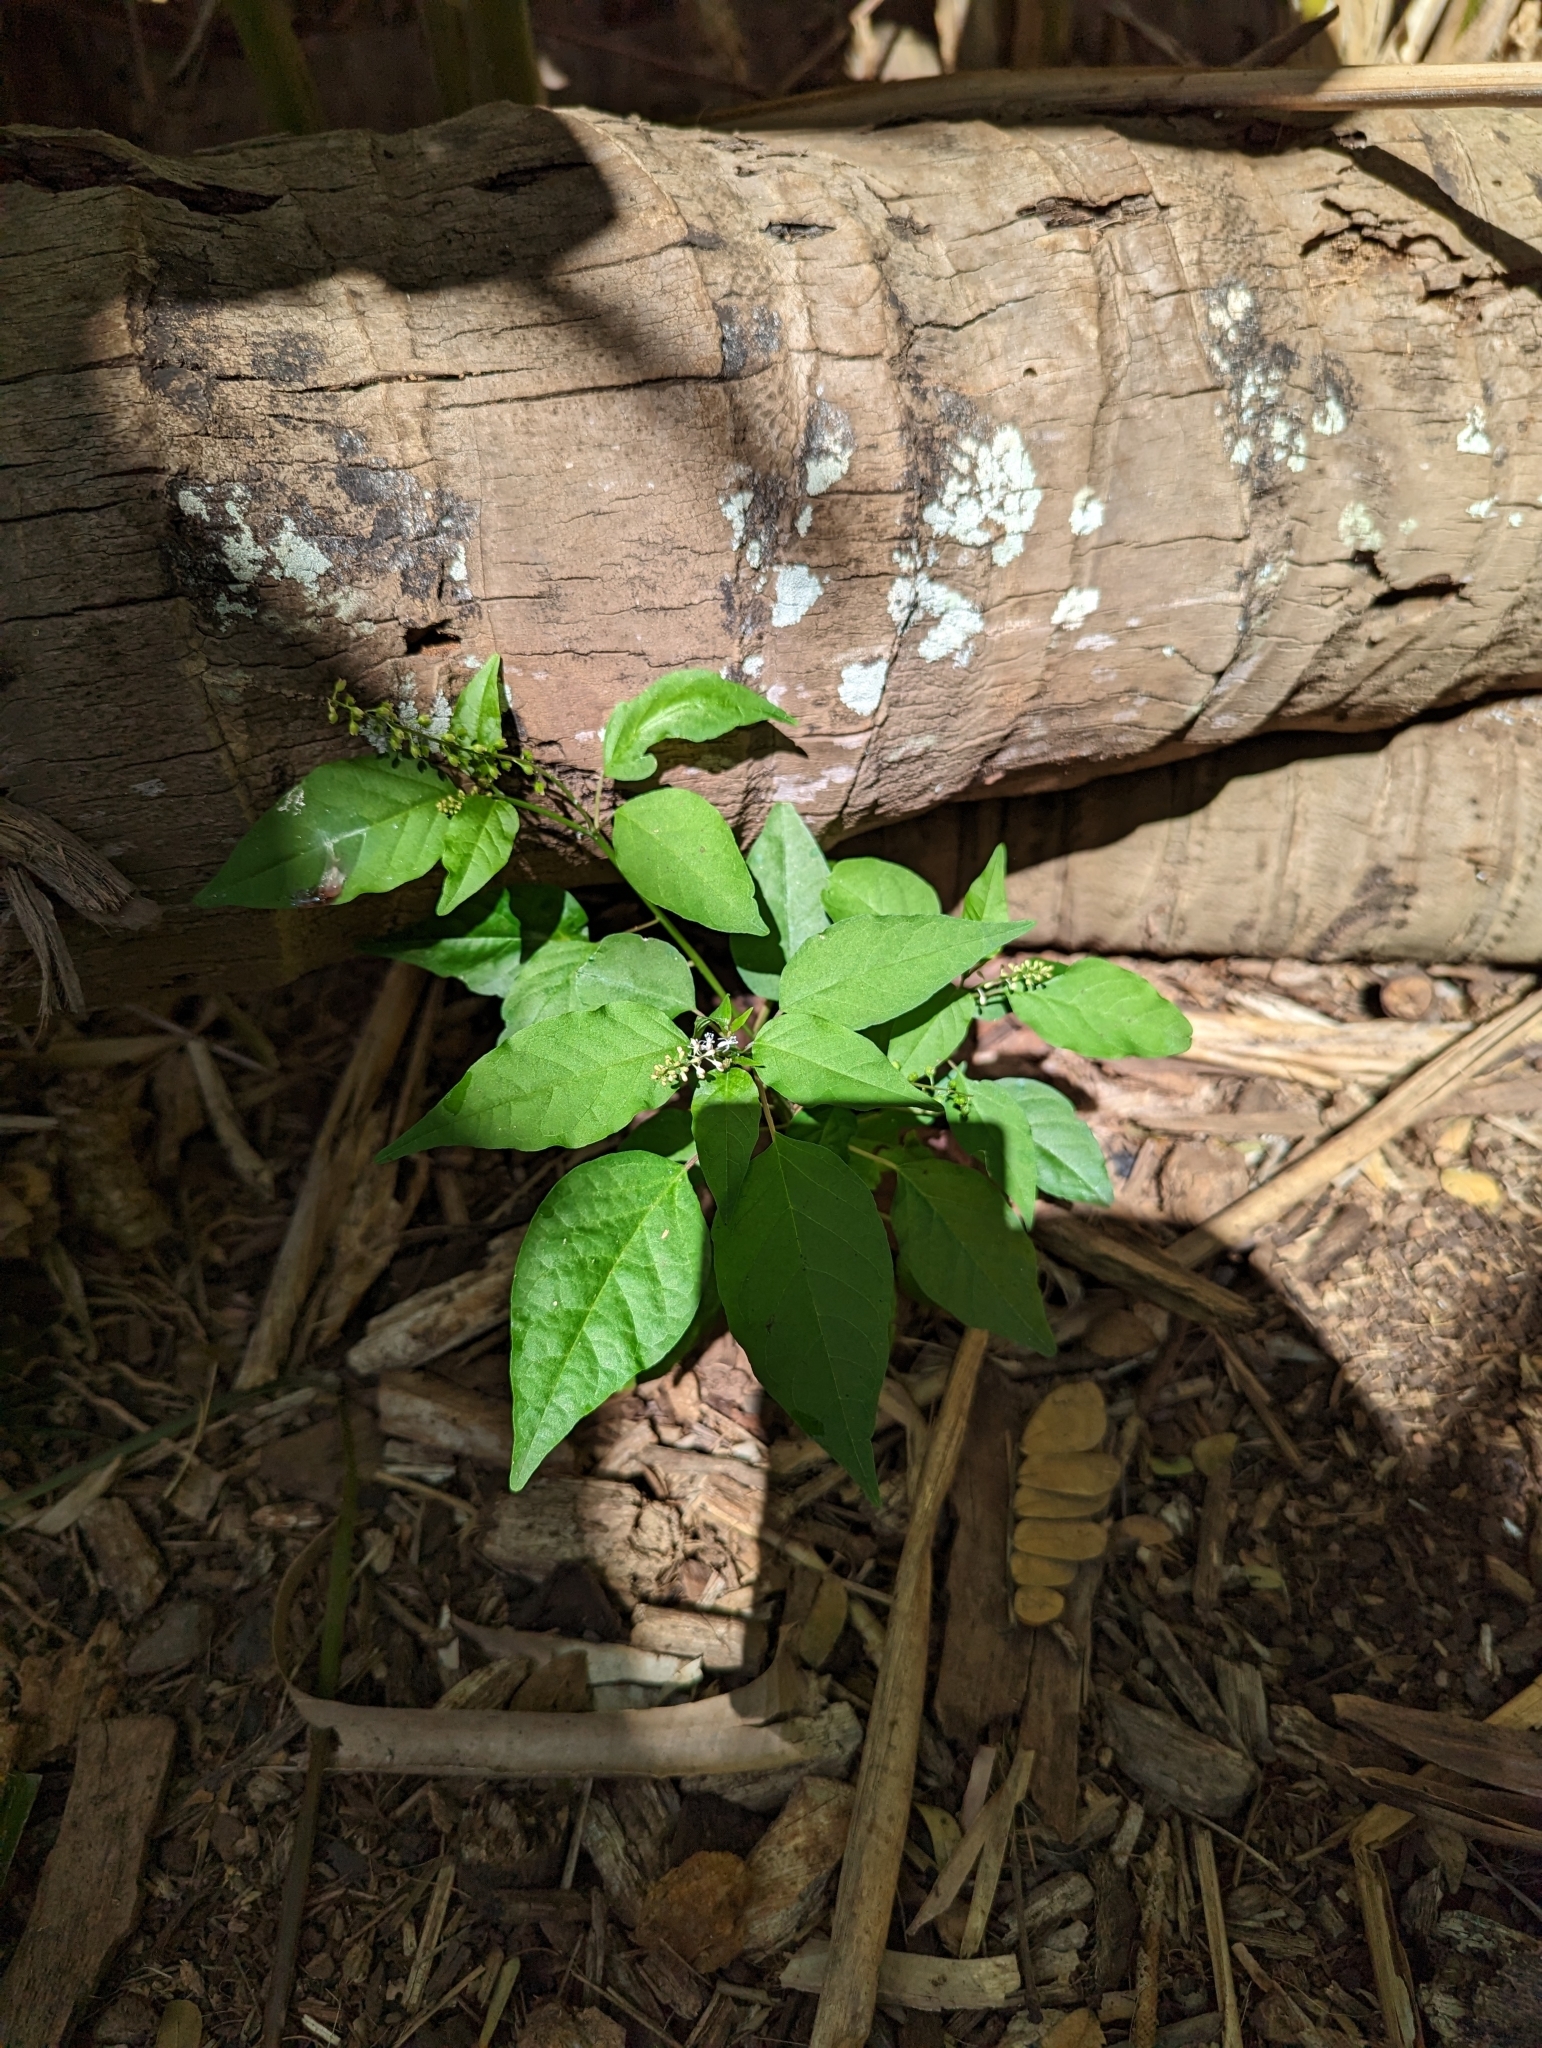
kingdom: Plantae
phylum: Tracheophyta
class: Magnoliopsida
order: Caryophyllales
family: Phytolaccaceae
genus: Rivina
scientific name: Rivina humilis
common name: Rougeplant
